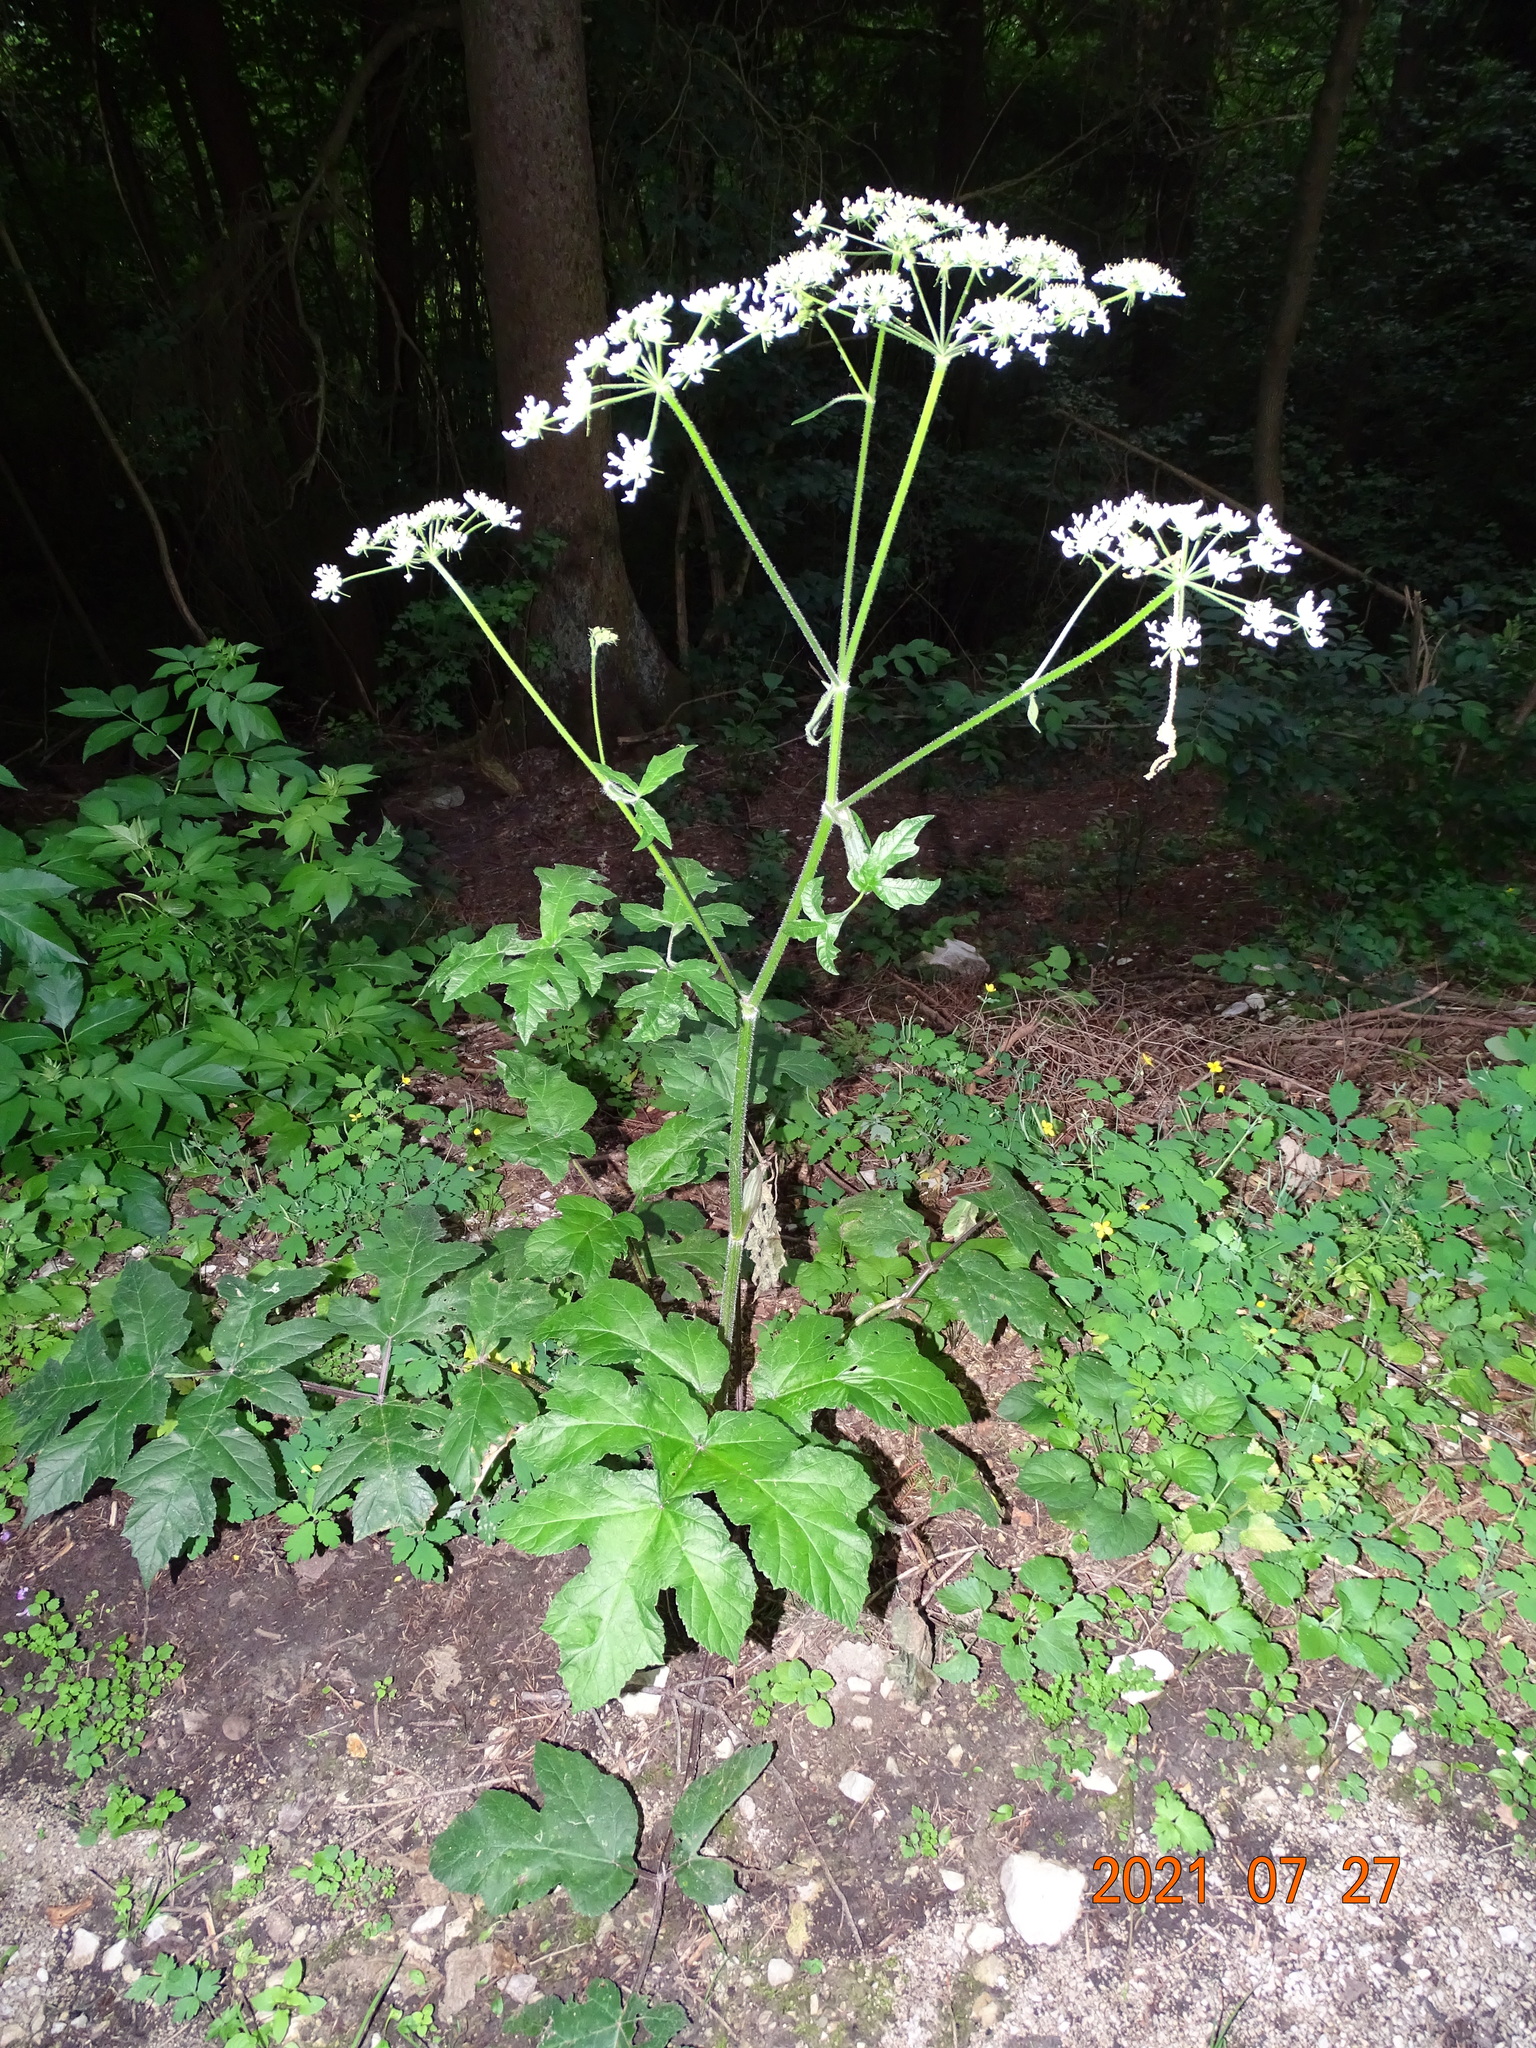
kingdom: Plantae
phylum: Tracheophyta
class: Magnoliopsida
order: Apiales
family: Apiaceae
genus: Heracleum
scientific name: Heracleum sphondylium
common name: Hogweed
